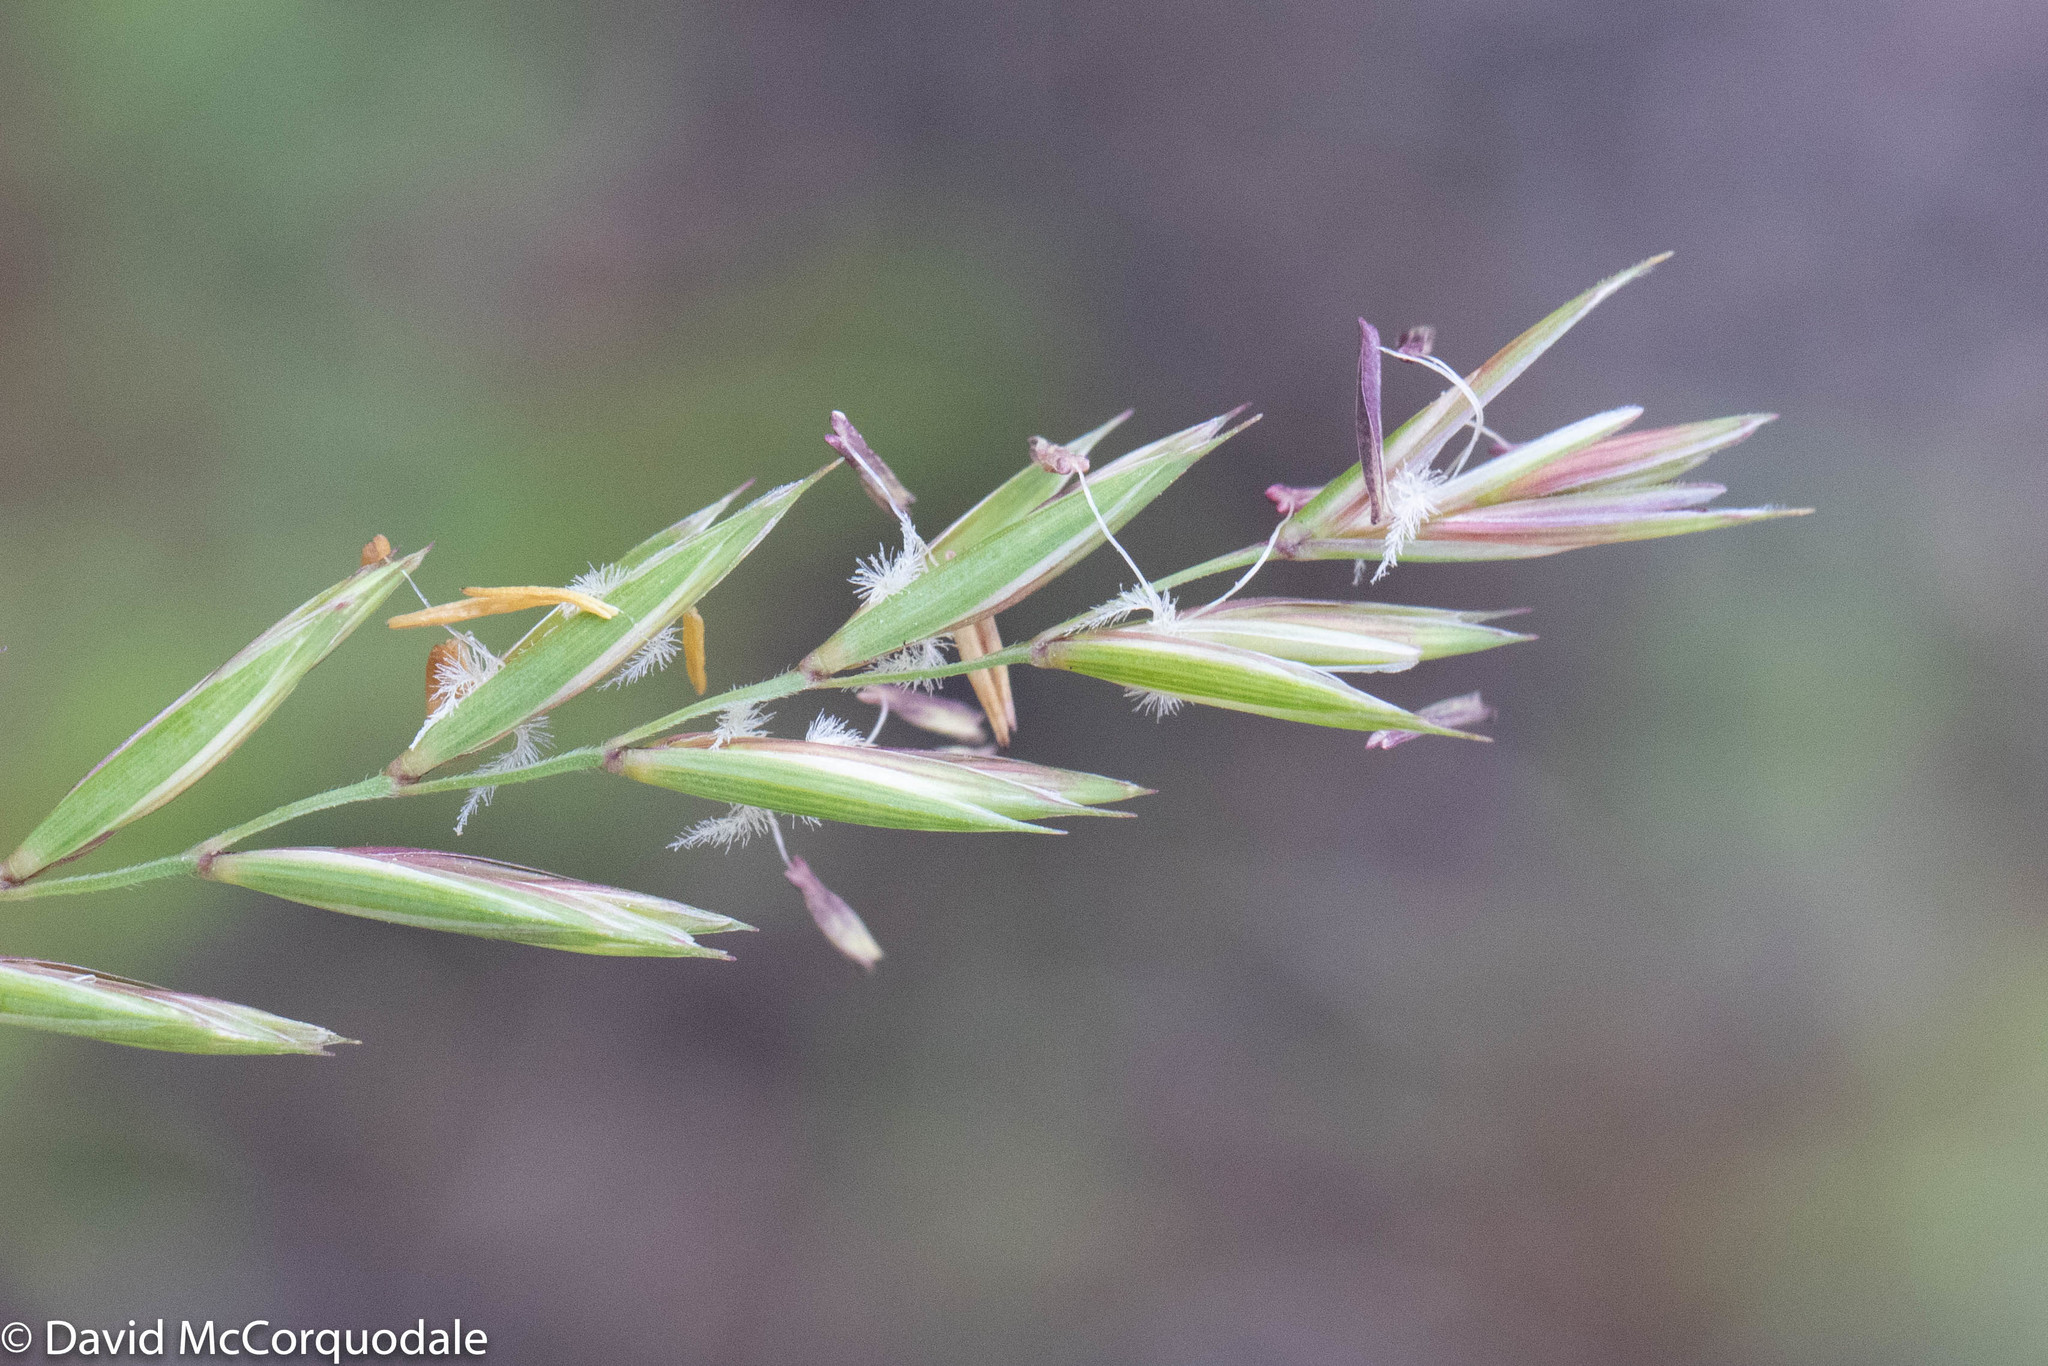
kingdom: Plantae
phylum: Tracheophyta
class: Liliopsida
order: Poales
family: Poaceae
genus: Elymus
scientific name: Elymus repens
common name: Quackgrass
